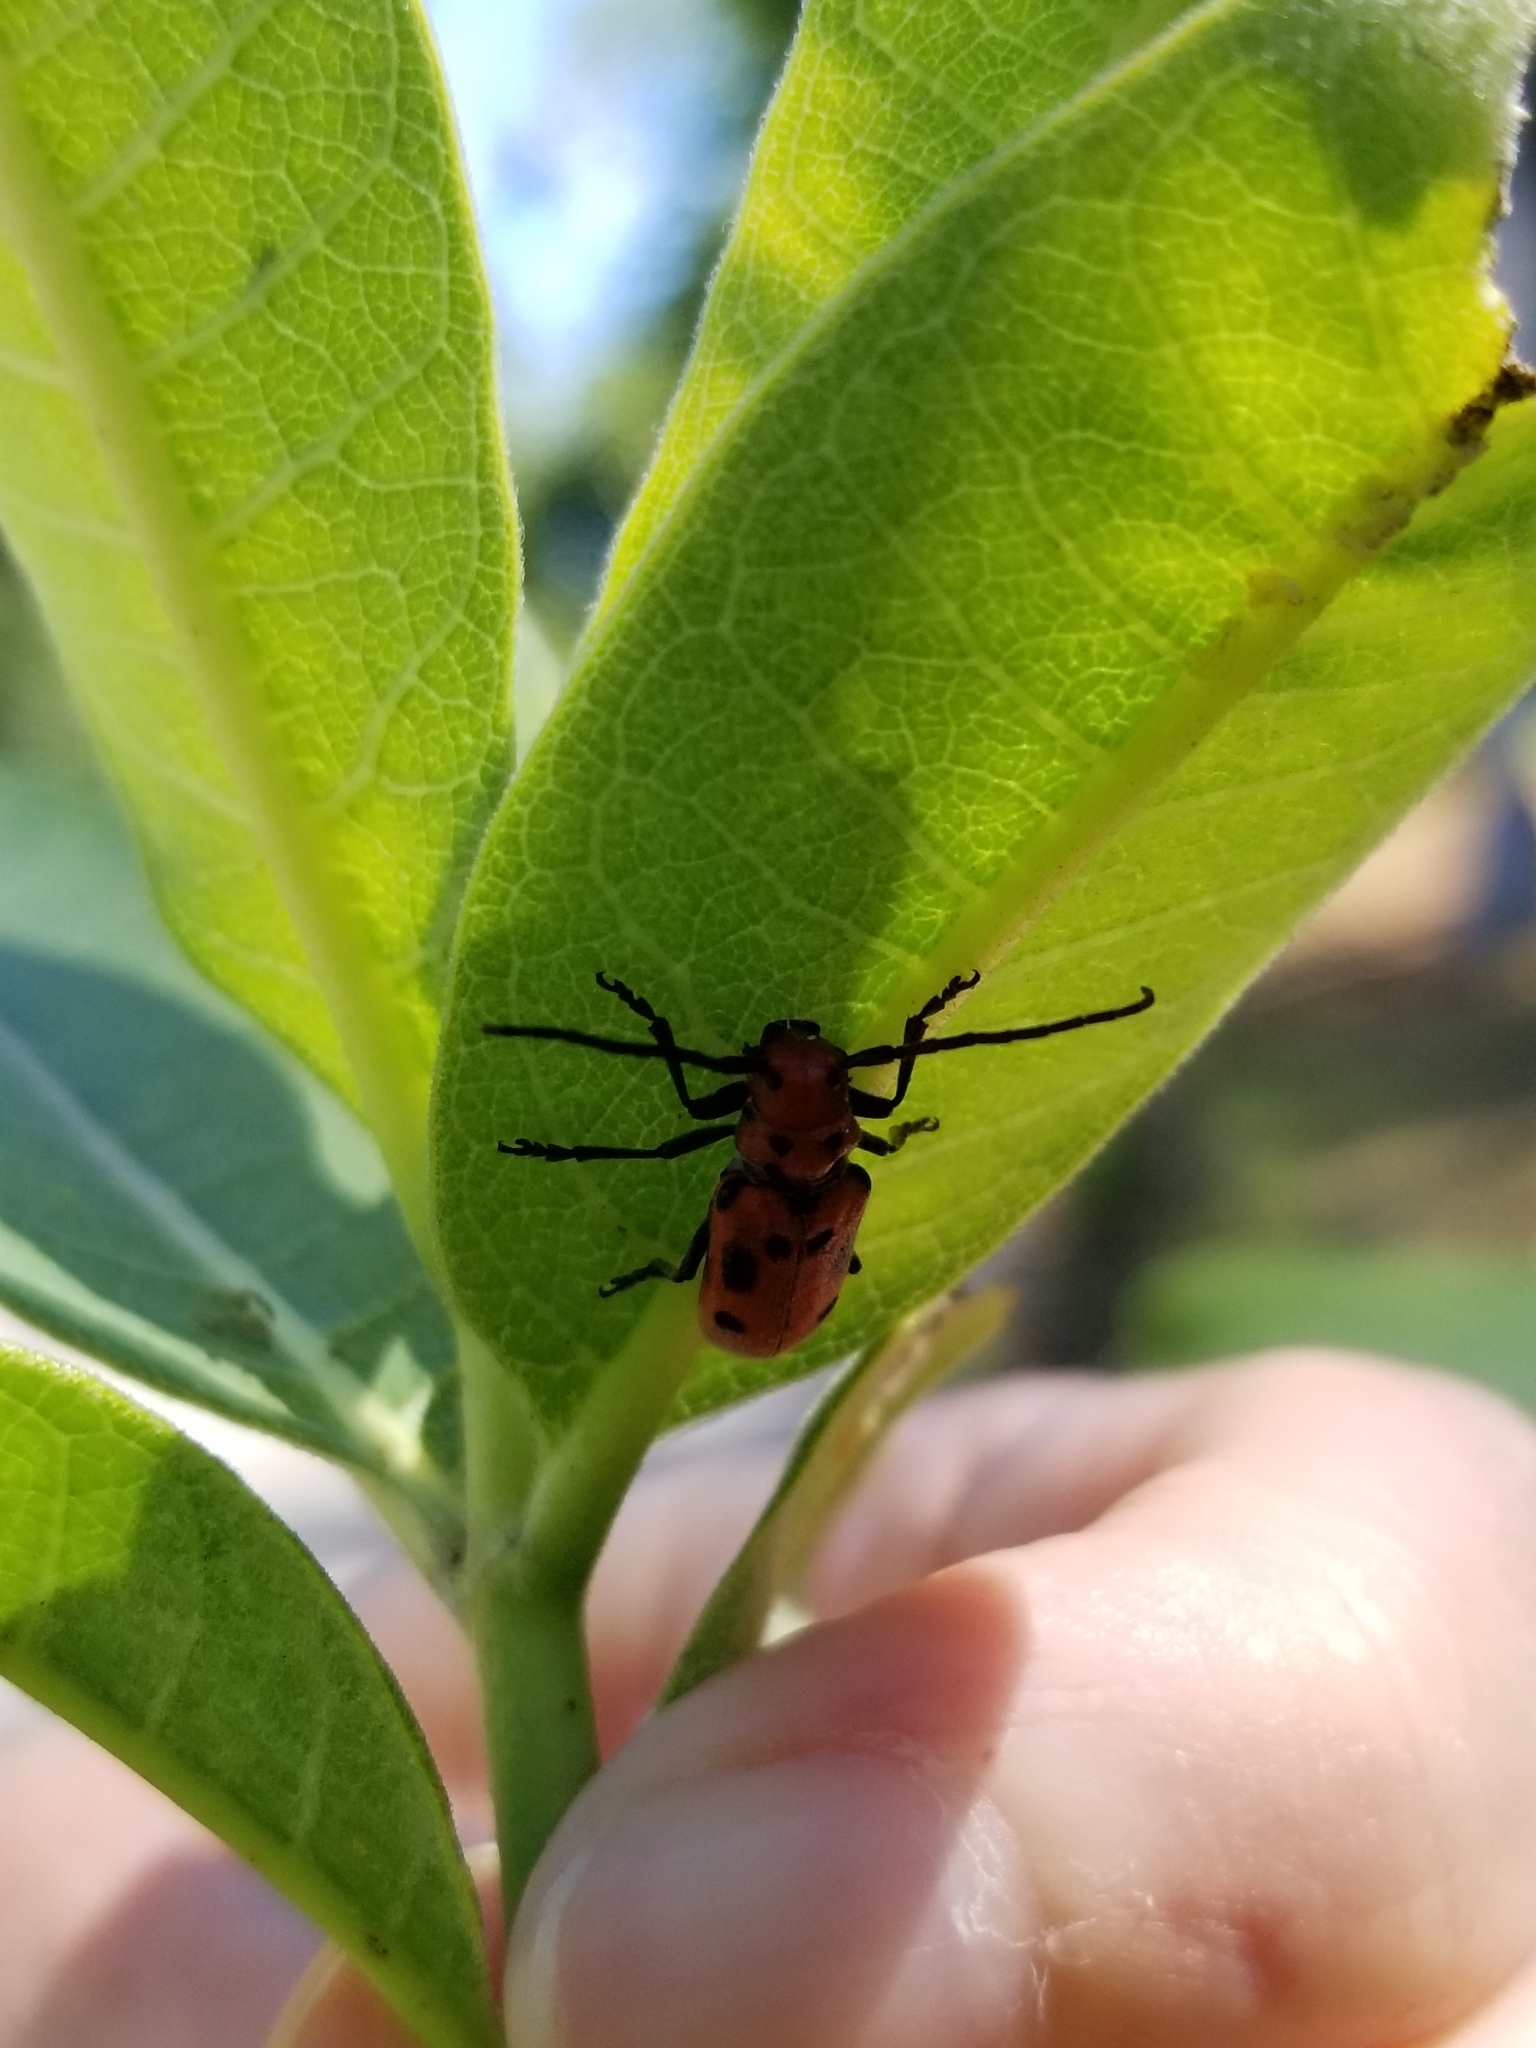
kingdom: Animalia
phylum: Arthropoda
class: Insecta
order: Coleoptera
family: Cerambycidae
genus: Tetraopes
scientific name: Tetraopes tetrophthalmus
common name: Red milkweed beetle
